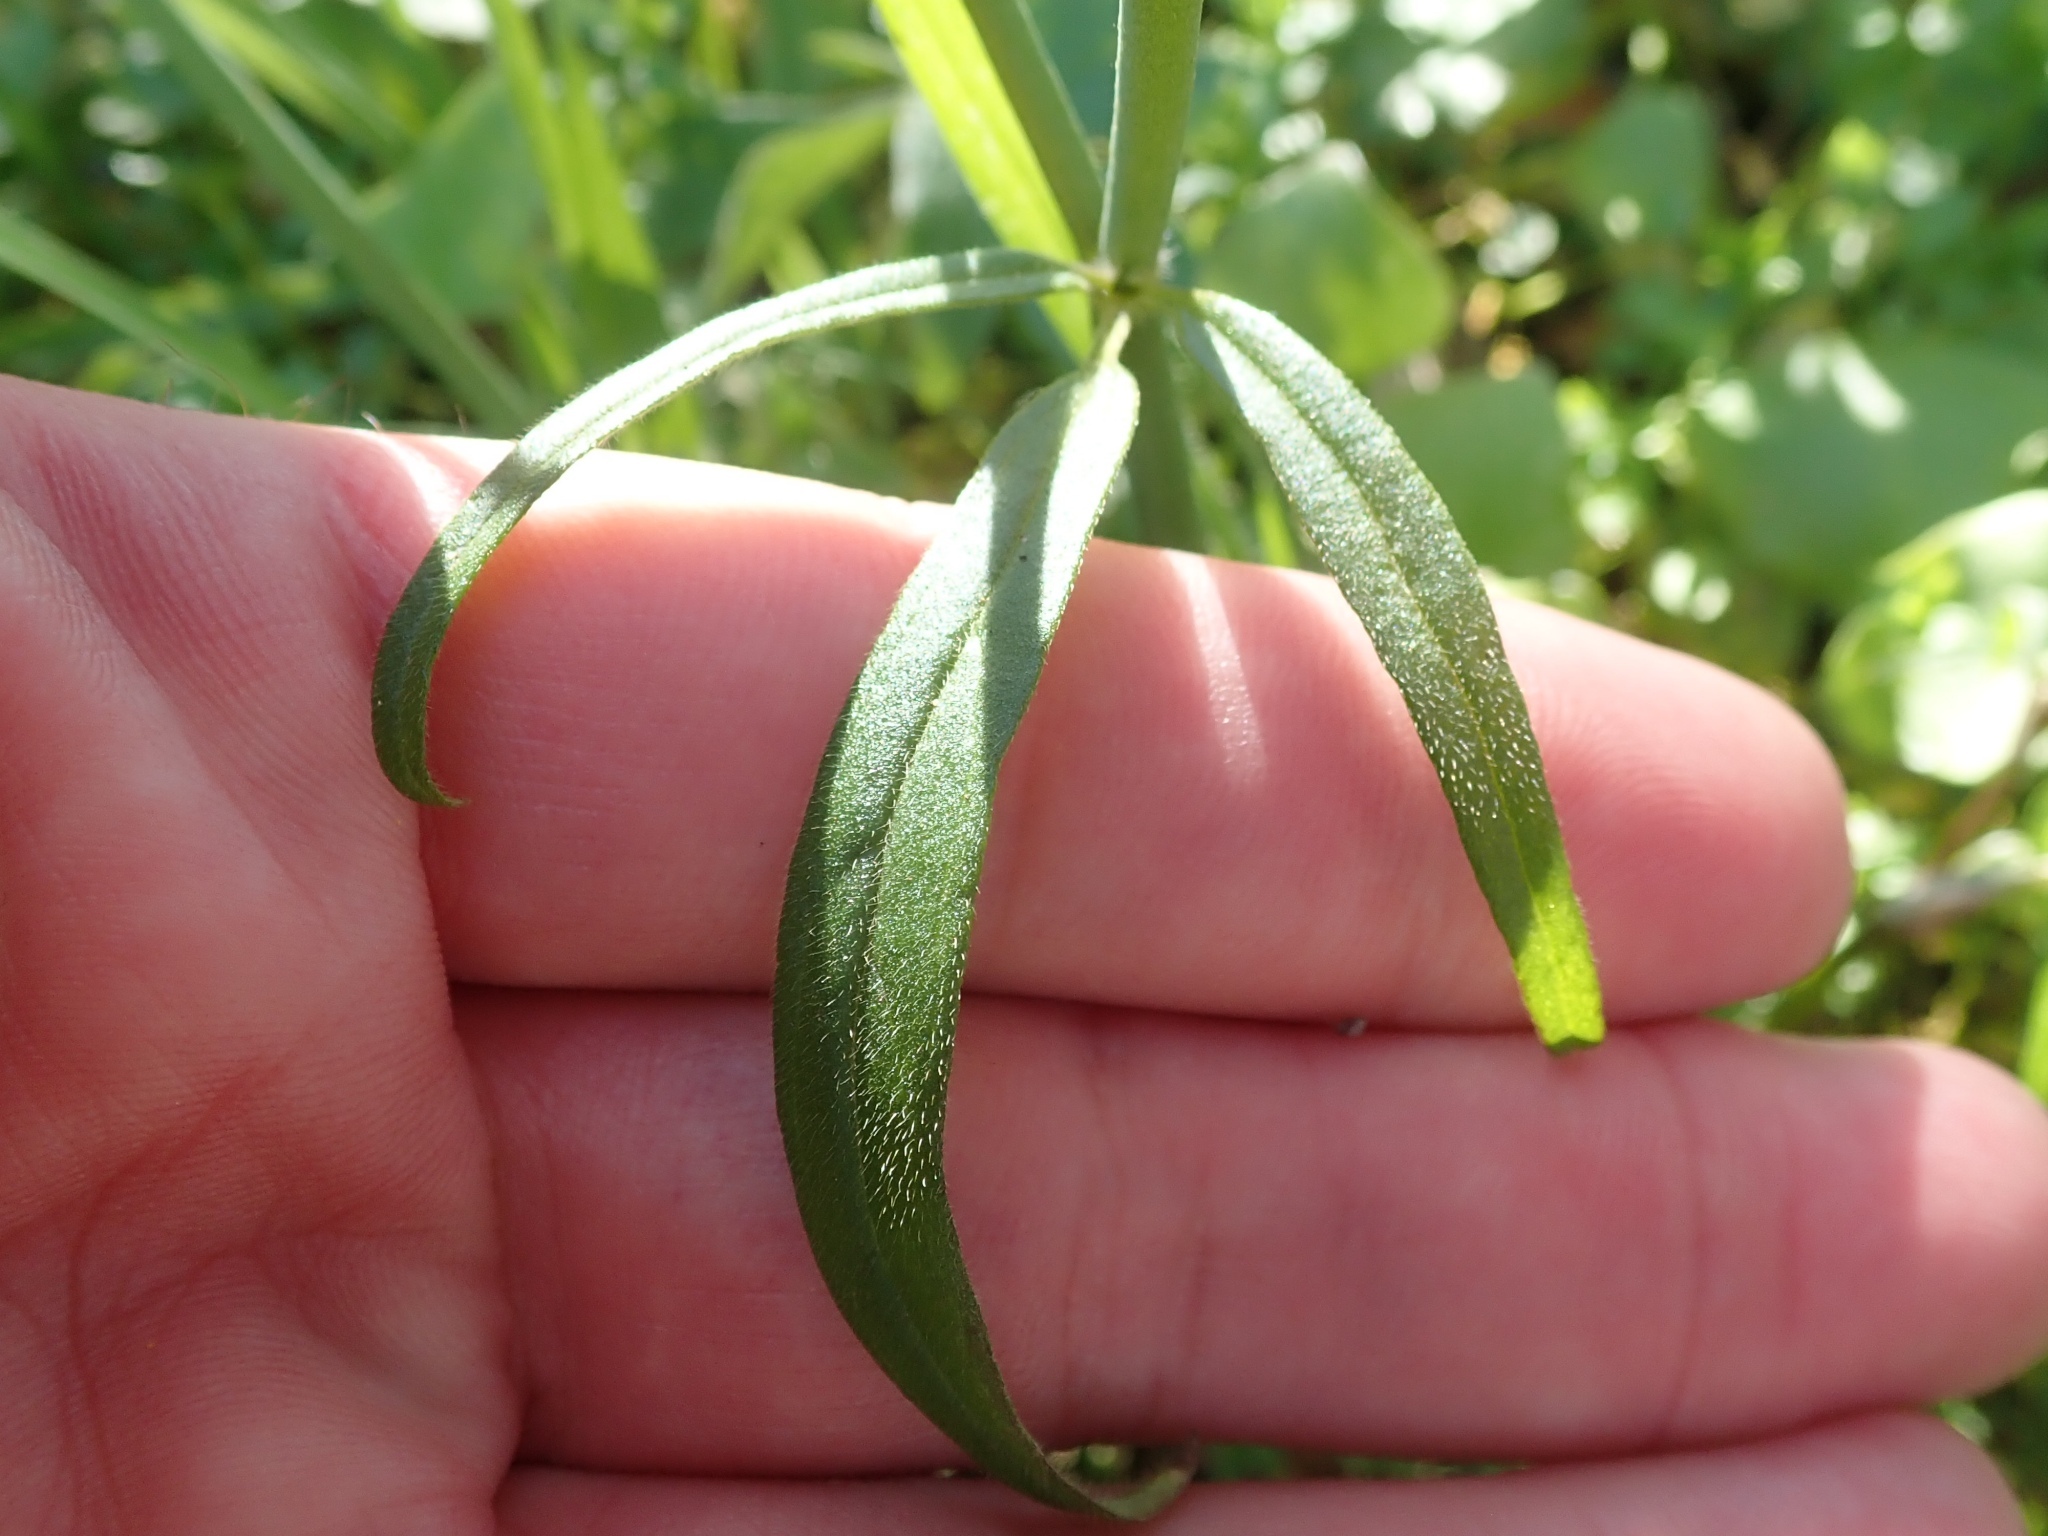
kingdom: Plantae
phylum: Tracheophyta
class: Magnoliopsida
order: Ranunculales
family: Ranunculaceae
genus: Ranunculus
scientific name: Ranunculus californicus
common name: California buttercup
